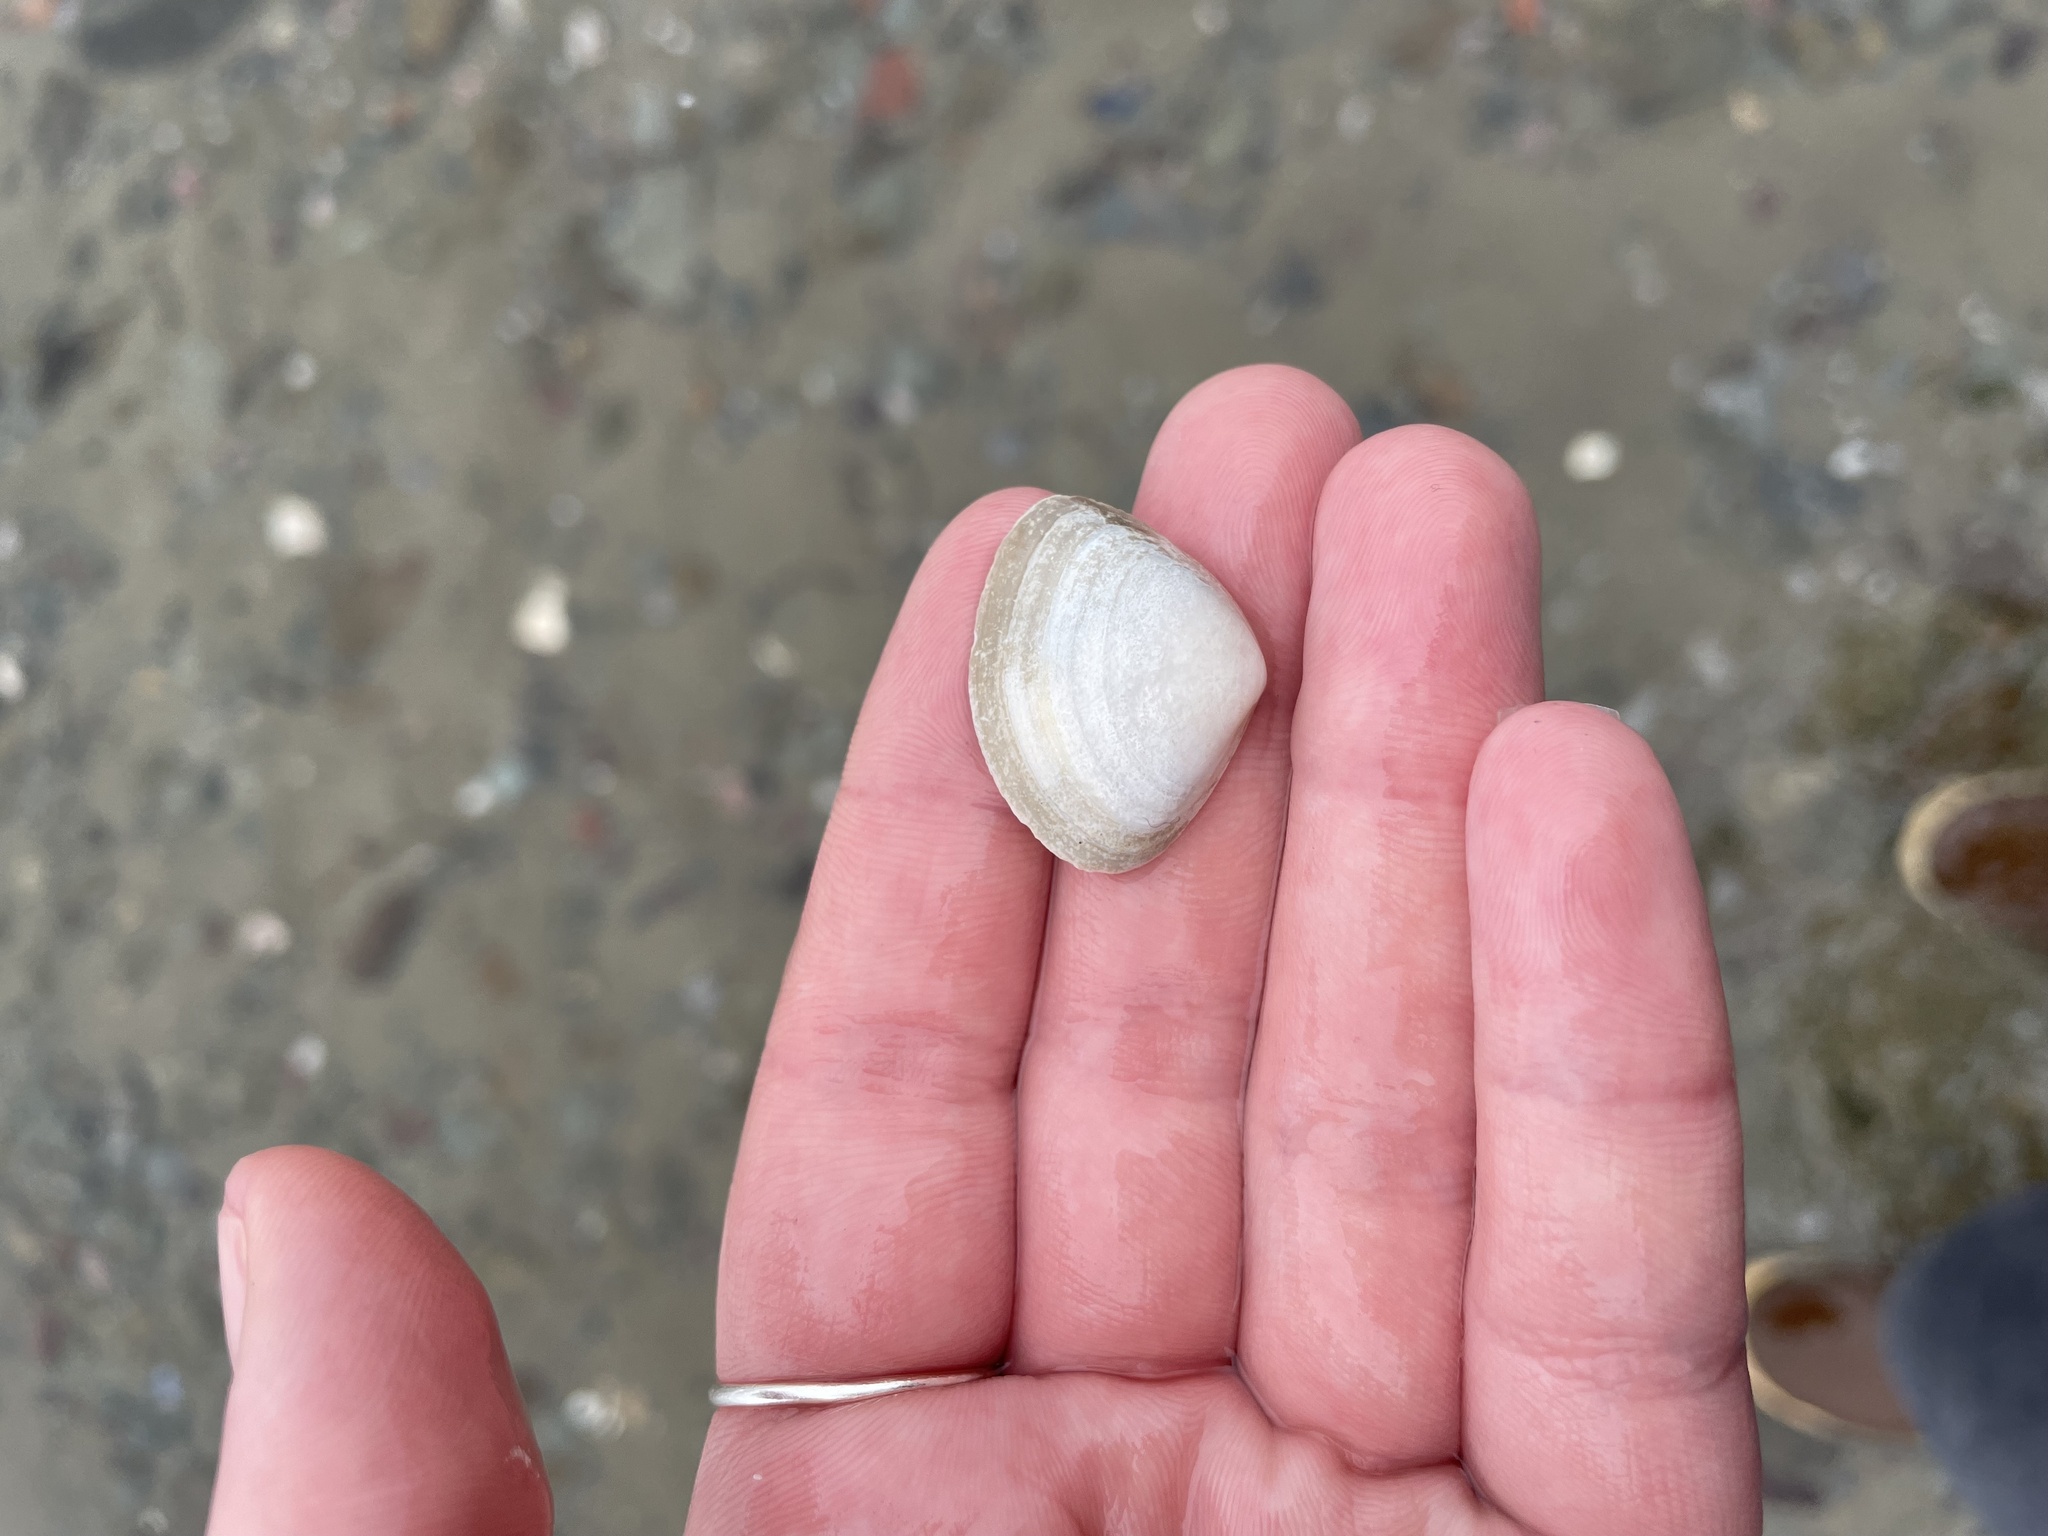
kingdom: Animalia
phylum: Mollusca
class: Bivalvia
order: Venerida
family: Mactridae
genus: Spisula
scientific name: Spisula solidissima
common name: Atlantic surf clam
